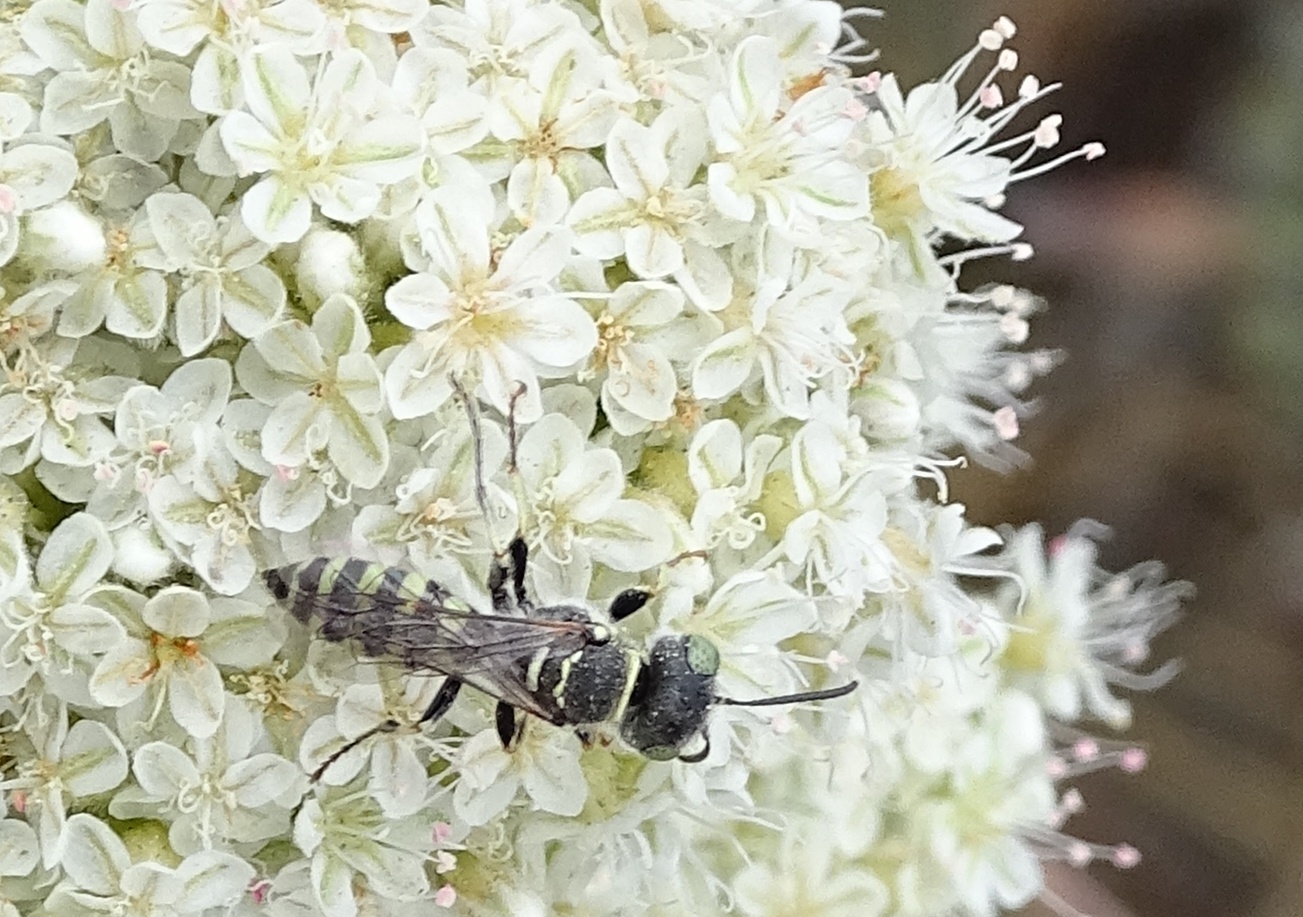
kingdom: Animalia
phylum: Arthropoda
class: Insecta
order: Hymenoptera
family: Crabronidae
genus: Clypeadon
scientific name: Clypeadon
